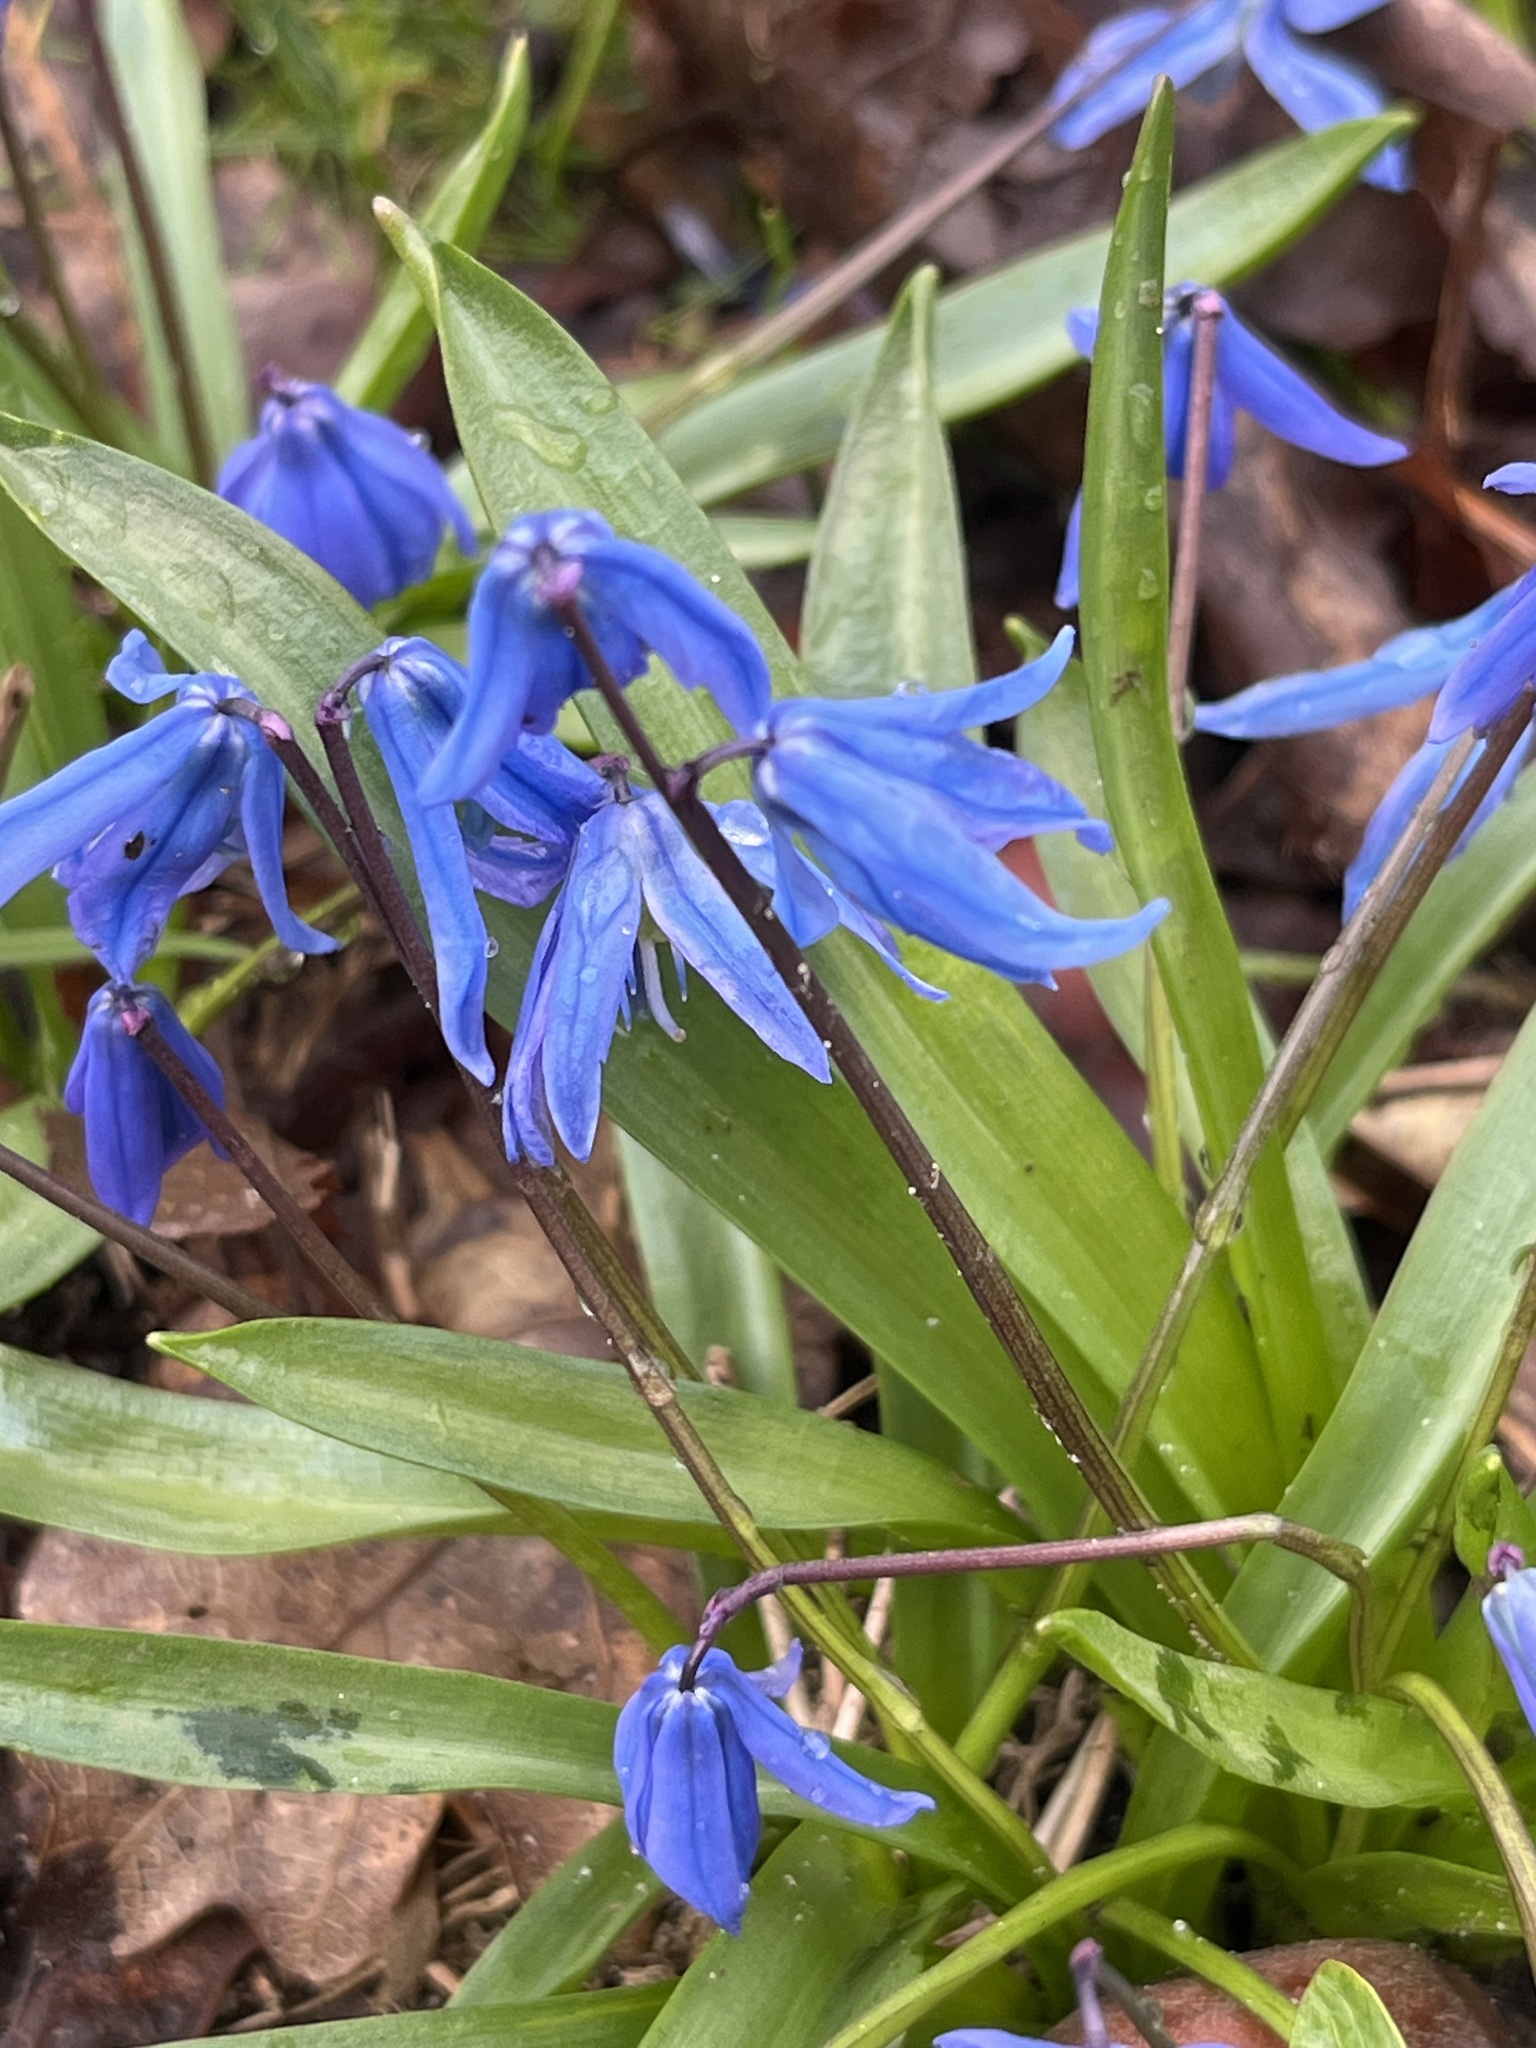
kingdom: Plantae
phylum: Tracheophyta
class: Liliopsida
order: Asparagales
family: Asparagaceae
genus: Scilla
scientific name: Scilla siberica
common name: Siberian squill
